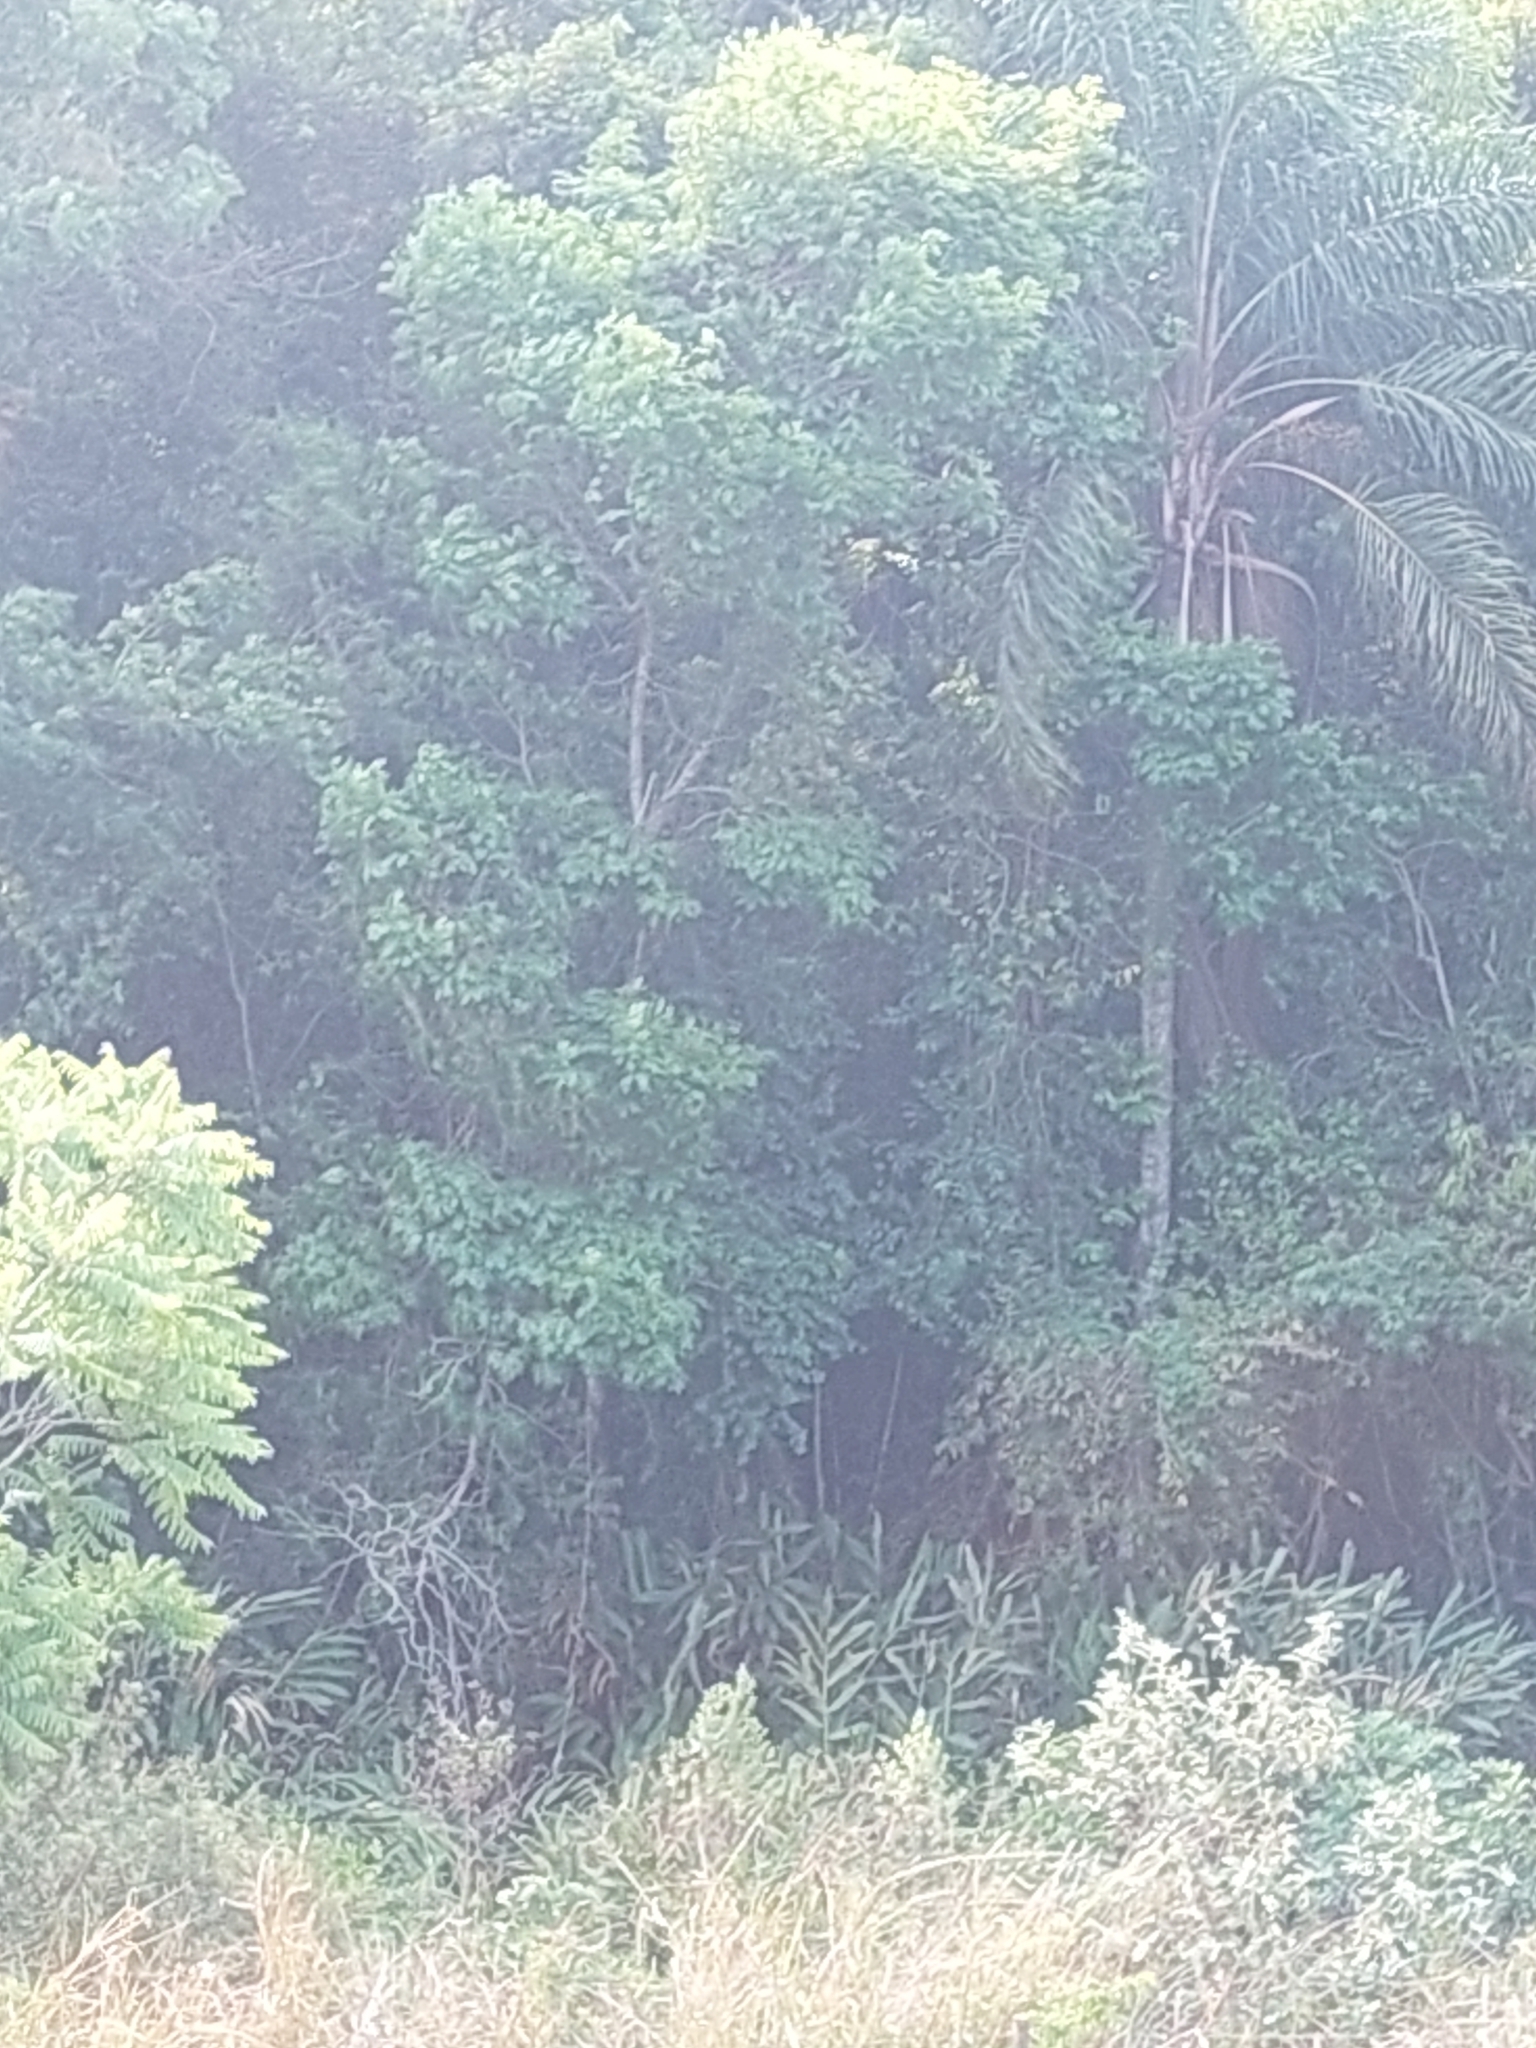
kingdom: Plantae
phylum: Tracheophyta
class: Liliopsida
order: Zingiberales
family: Zingiberaceae
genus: Hedychium
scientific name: Hedychium coronarium
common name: White garland-lily
